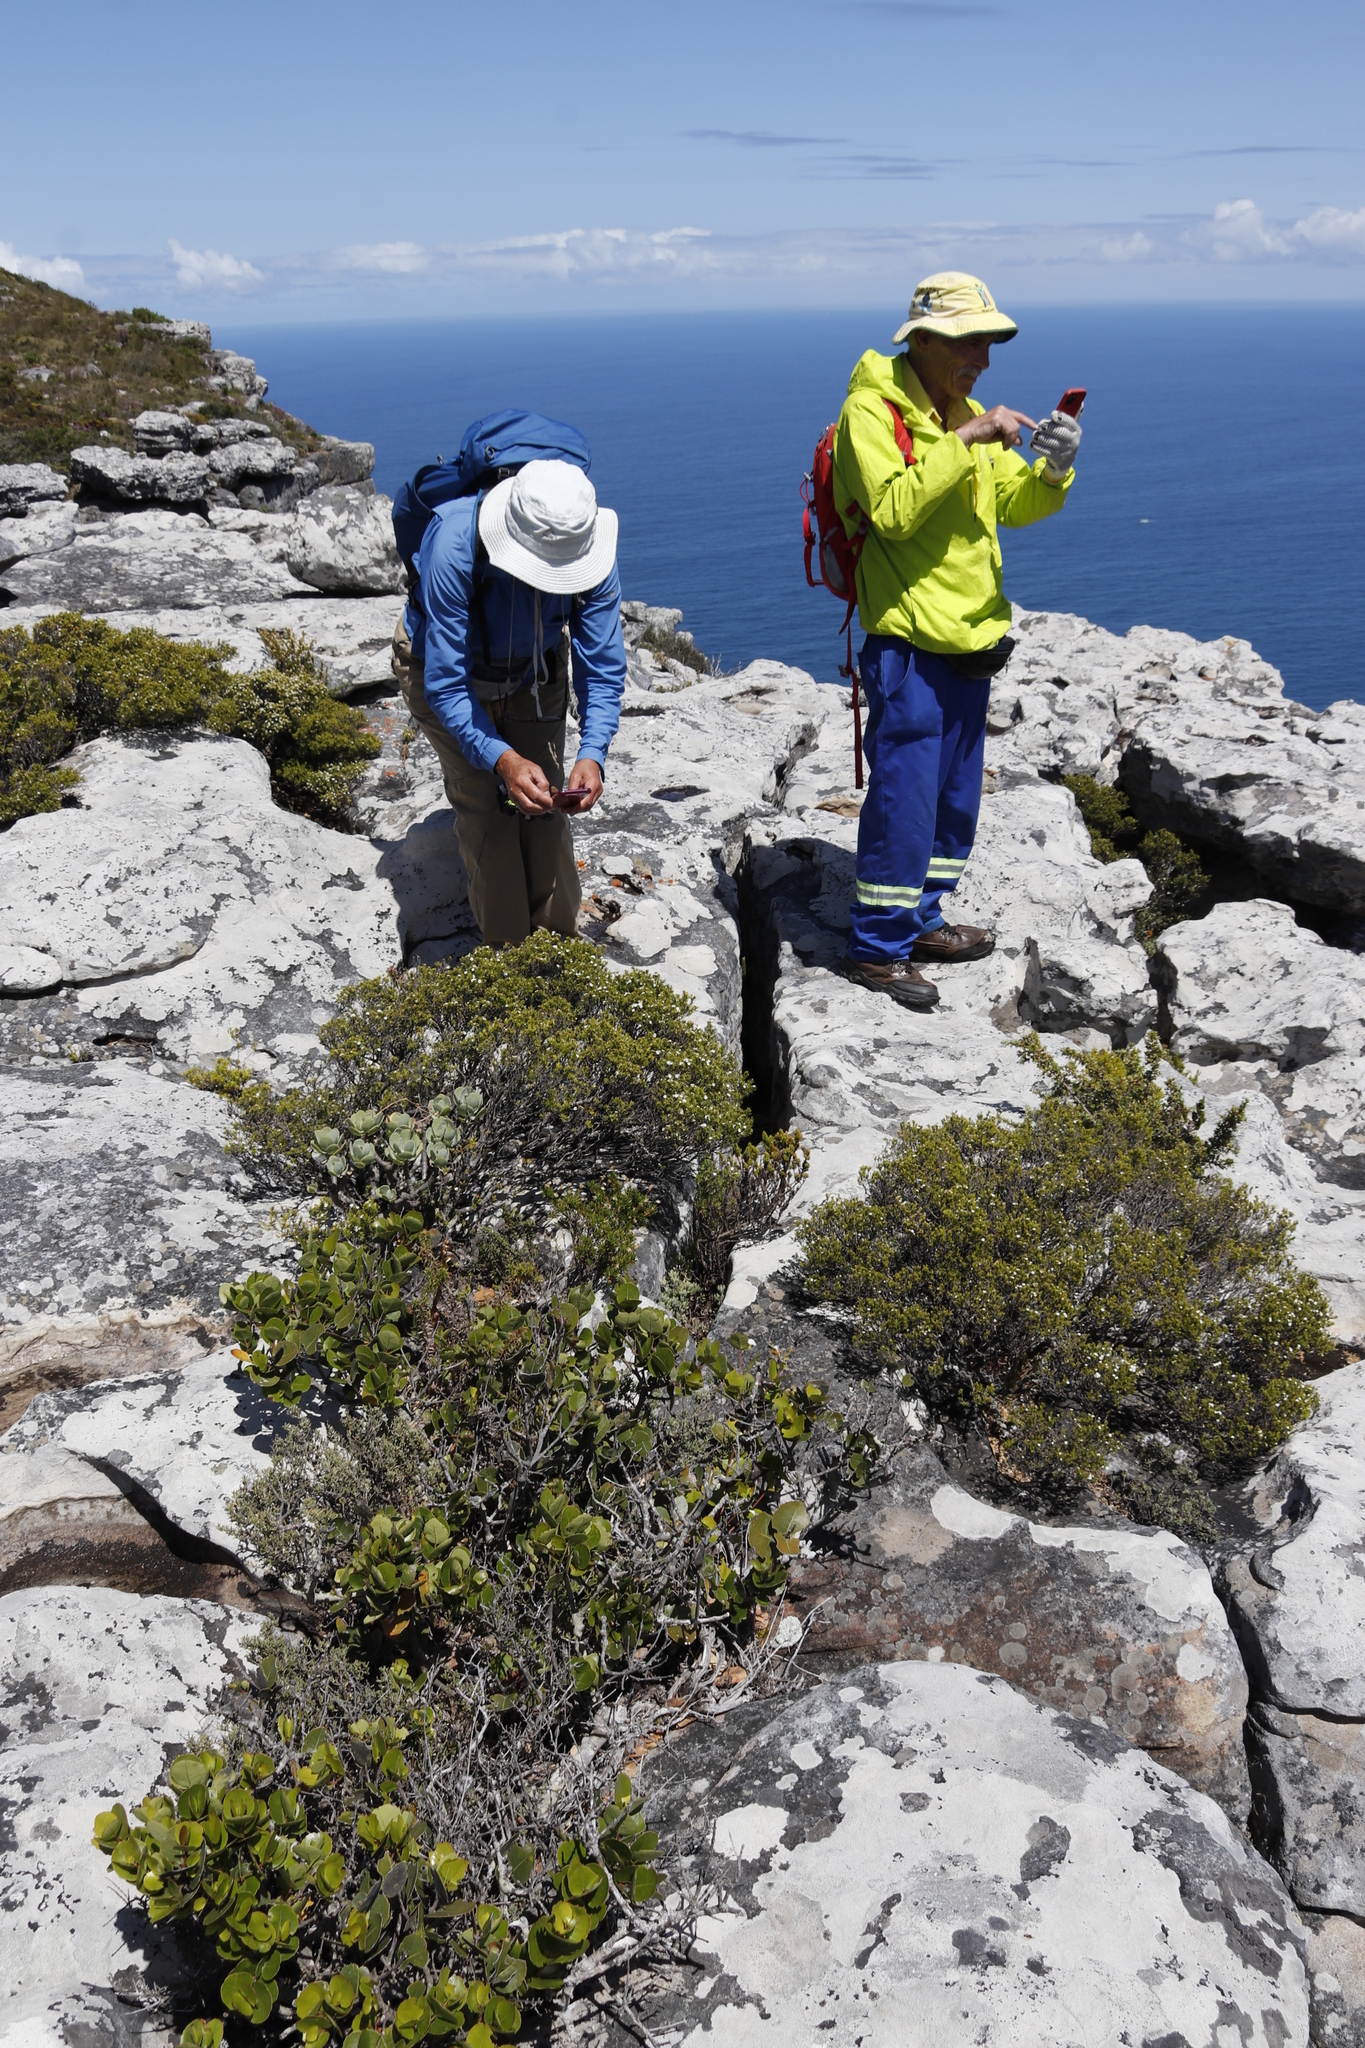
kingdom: Plantae
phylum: Tracheophyta
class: Magnoliopsida
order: Sapindales
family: Rutaceae
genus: Coleonema
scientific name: Coleonema album
